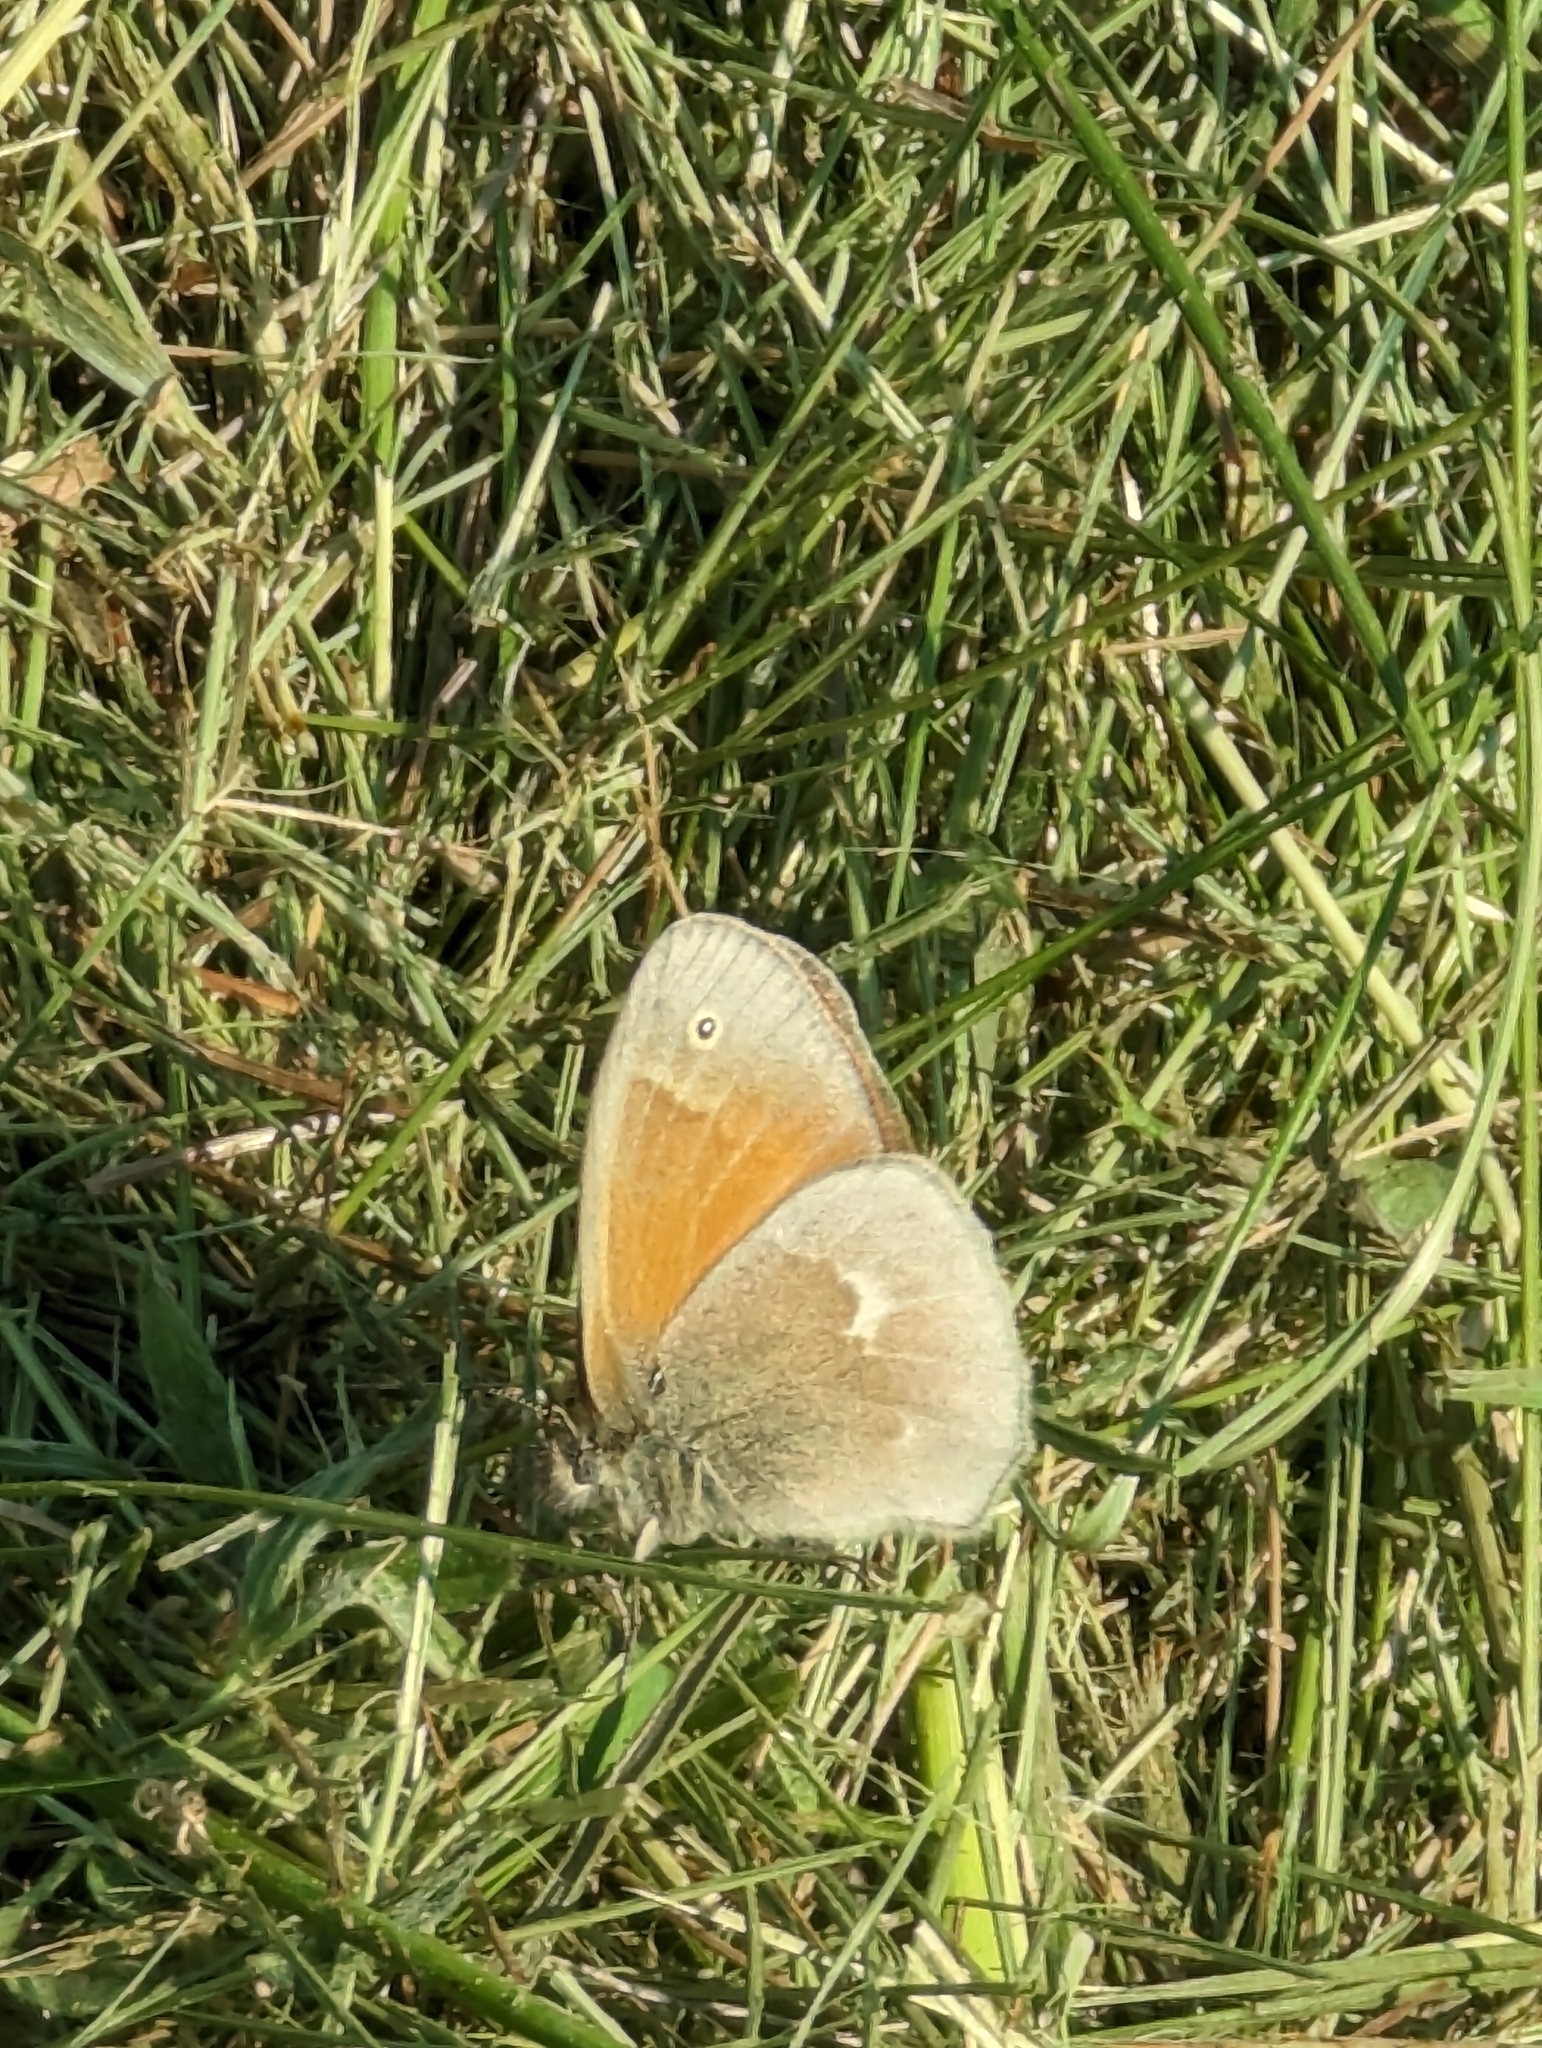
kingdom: Animalia
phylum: Arthropoda
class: Insecta
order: Lepidoptera
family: Nymphalidae
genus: Coenonympha
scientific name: Coenonympha california
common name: Common ringlet
